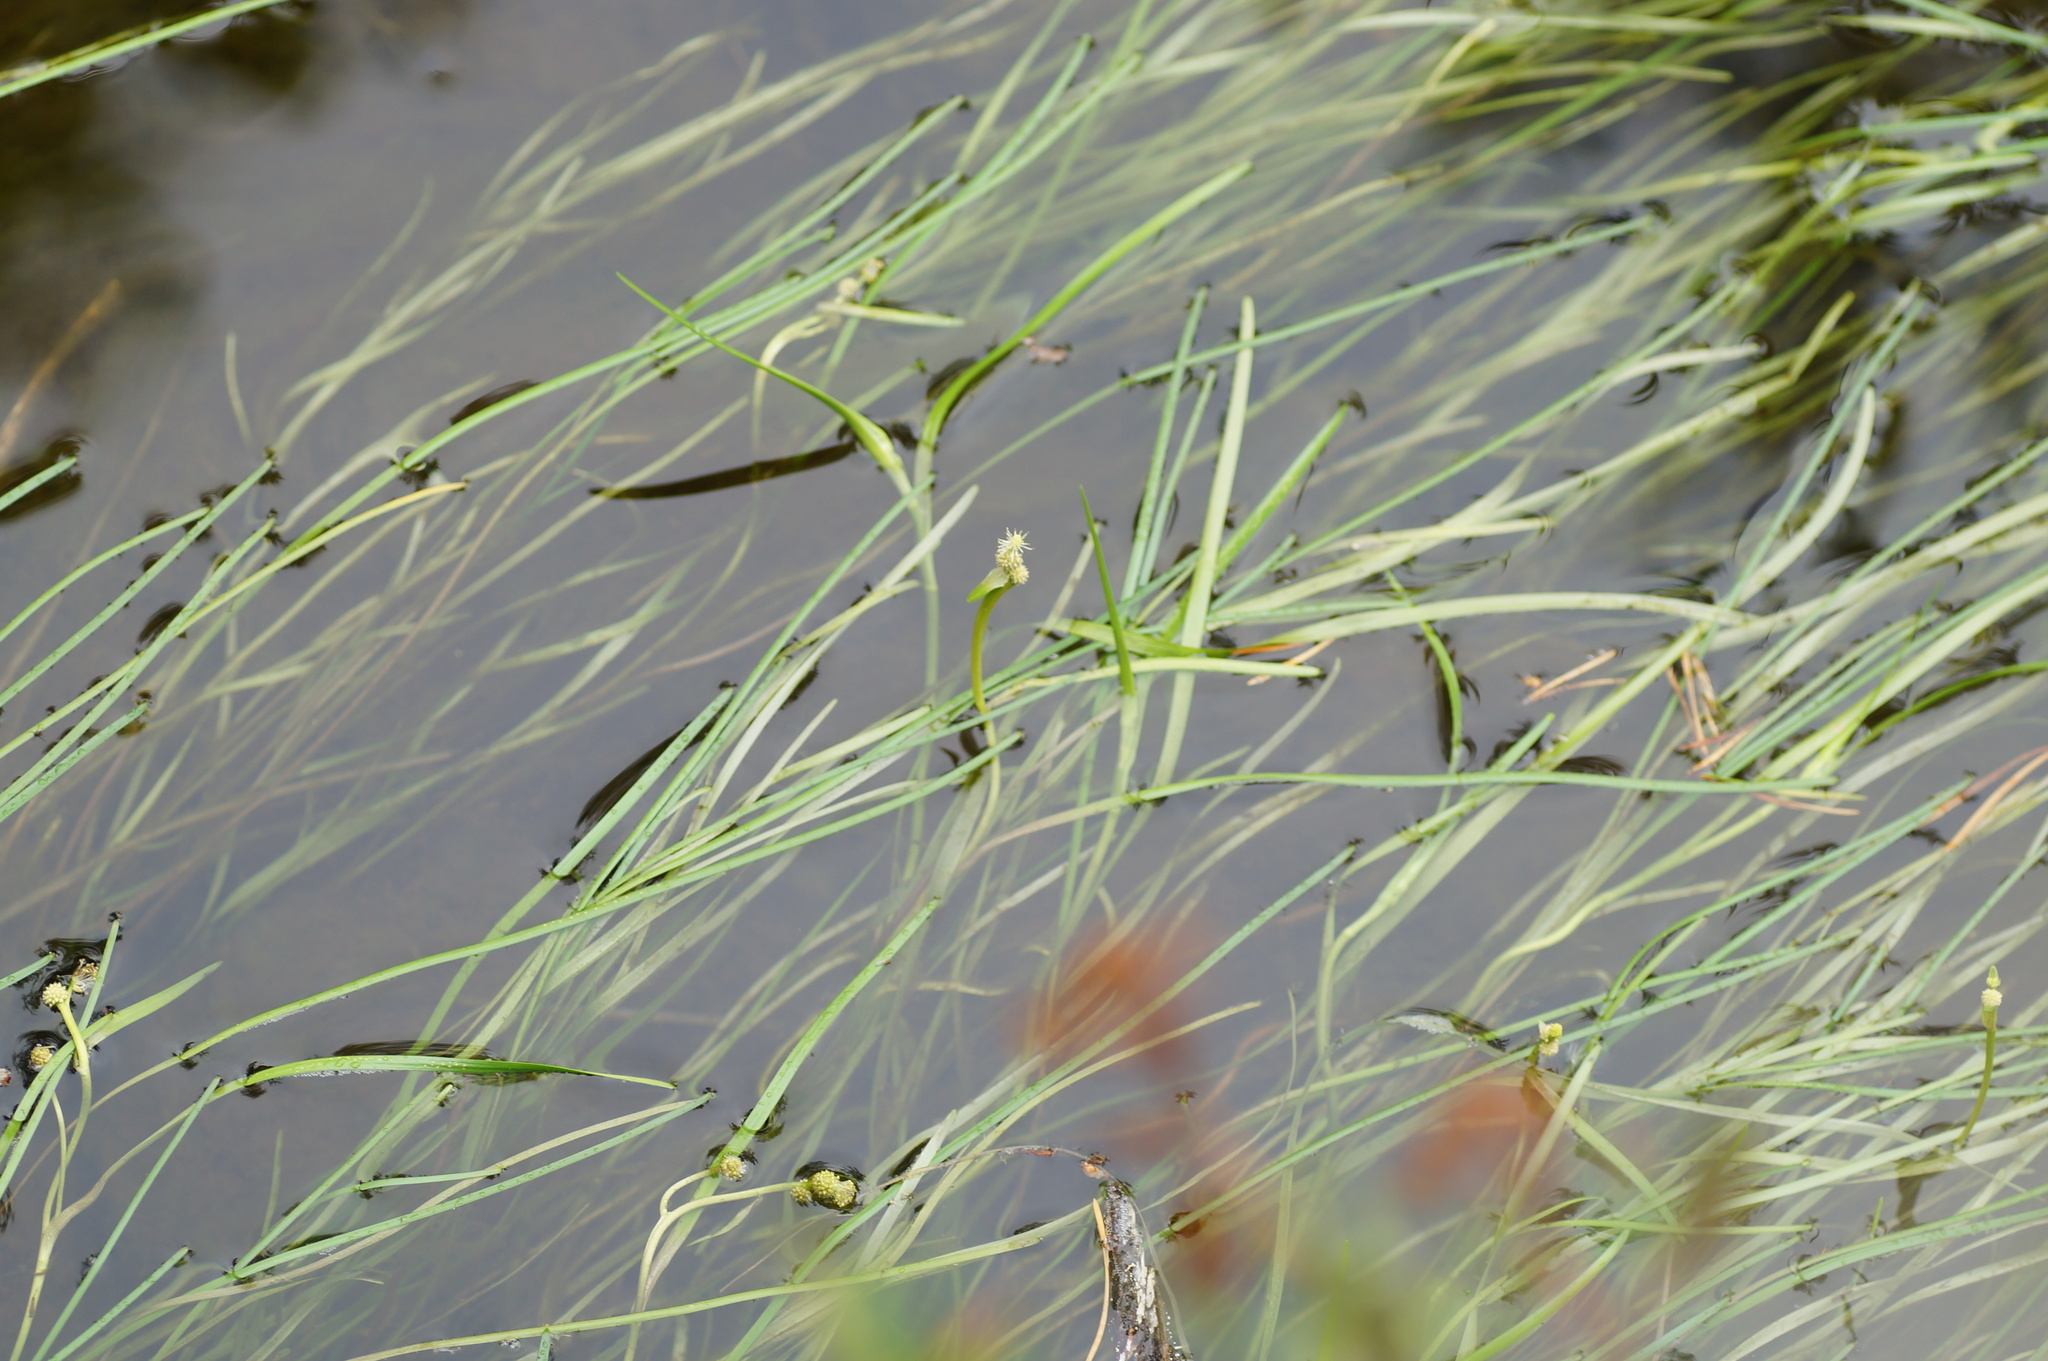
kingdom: Plantae
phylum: Tracheophyta
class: Liliopsida
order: Poales
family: Typhaceae
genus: Sparganium
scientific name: Sparganium hyperboreum
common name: Arctic burreed
